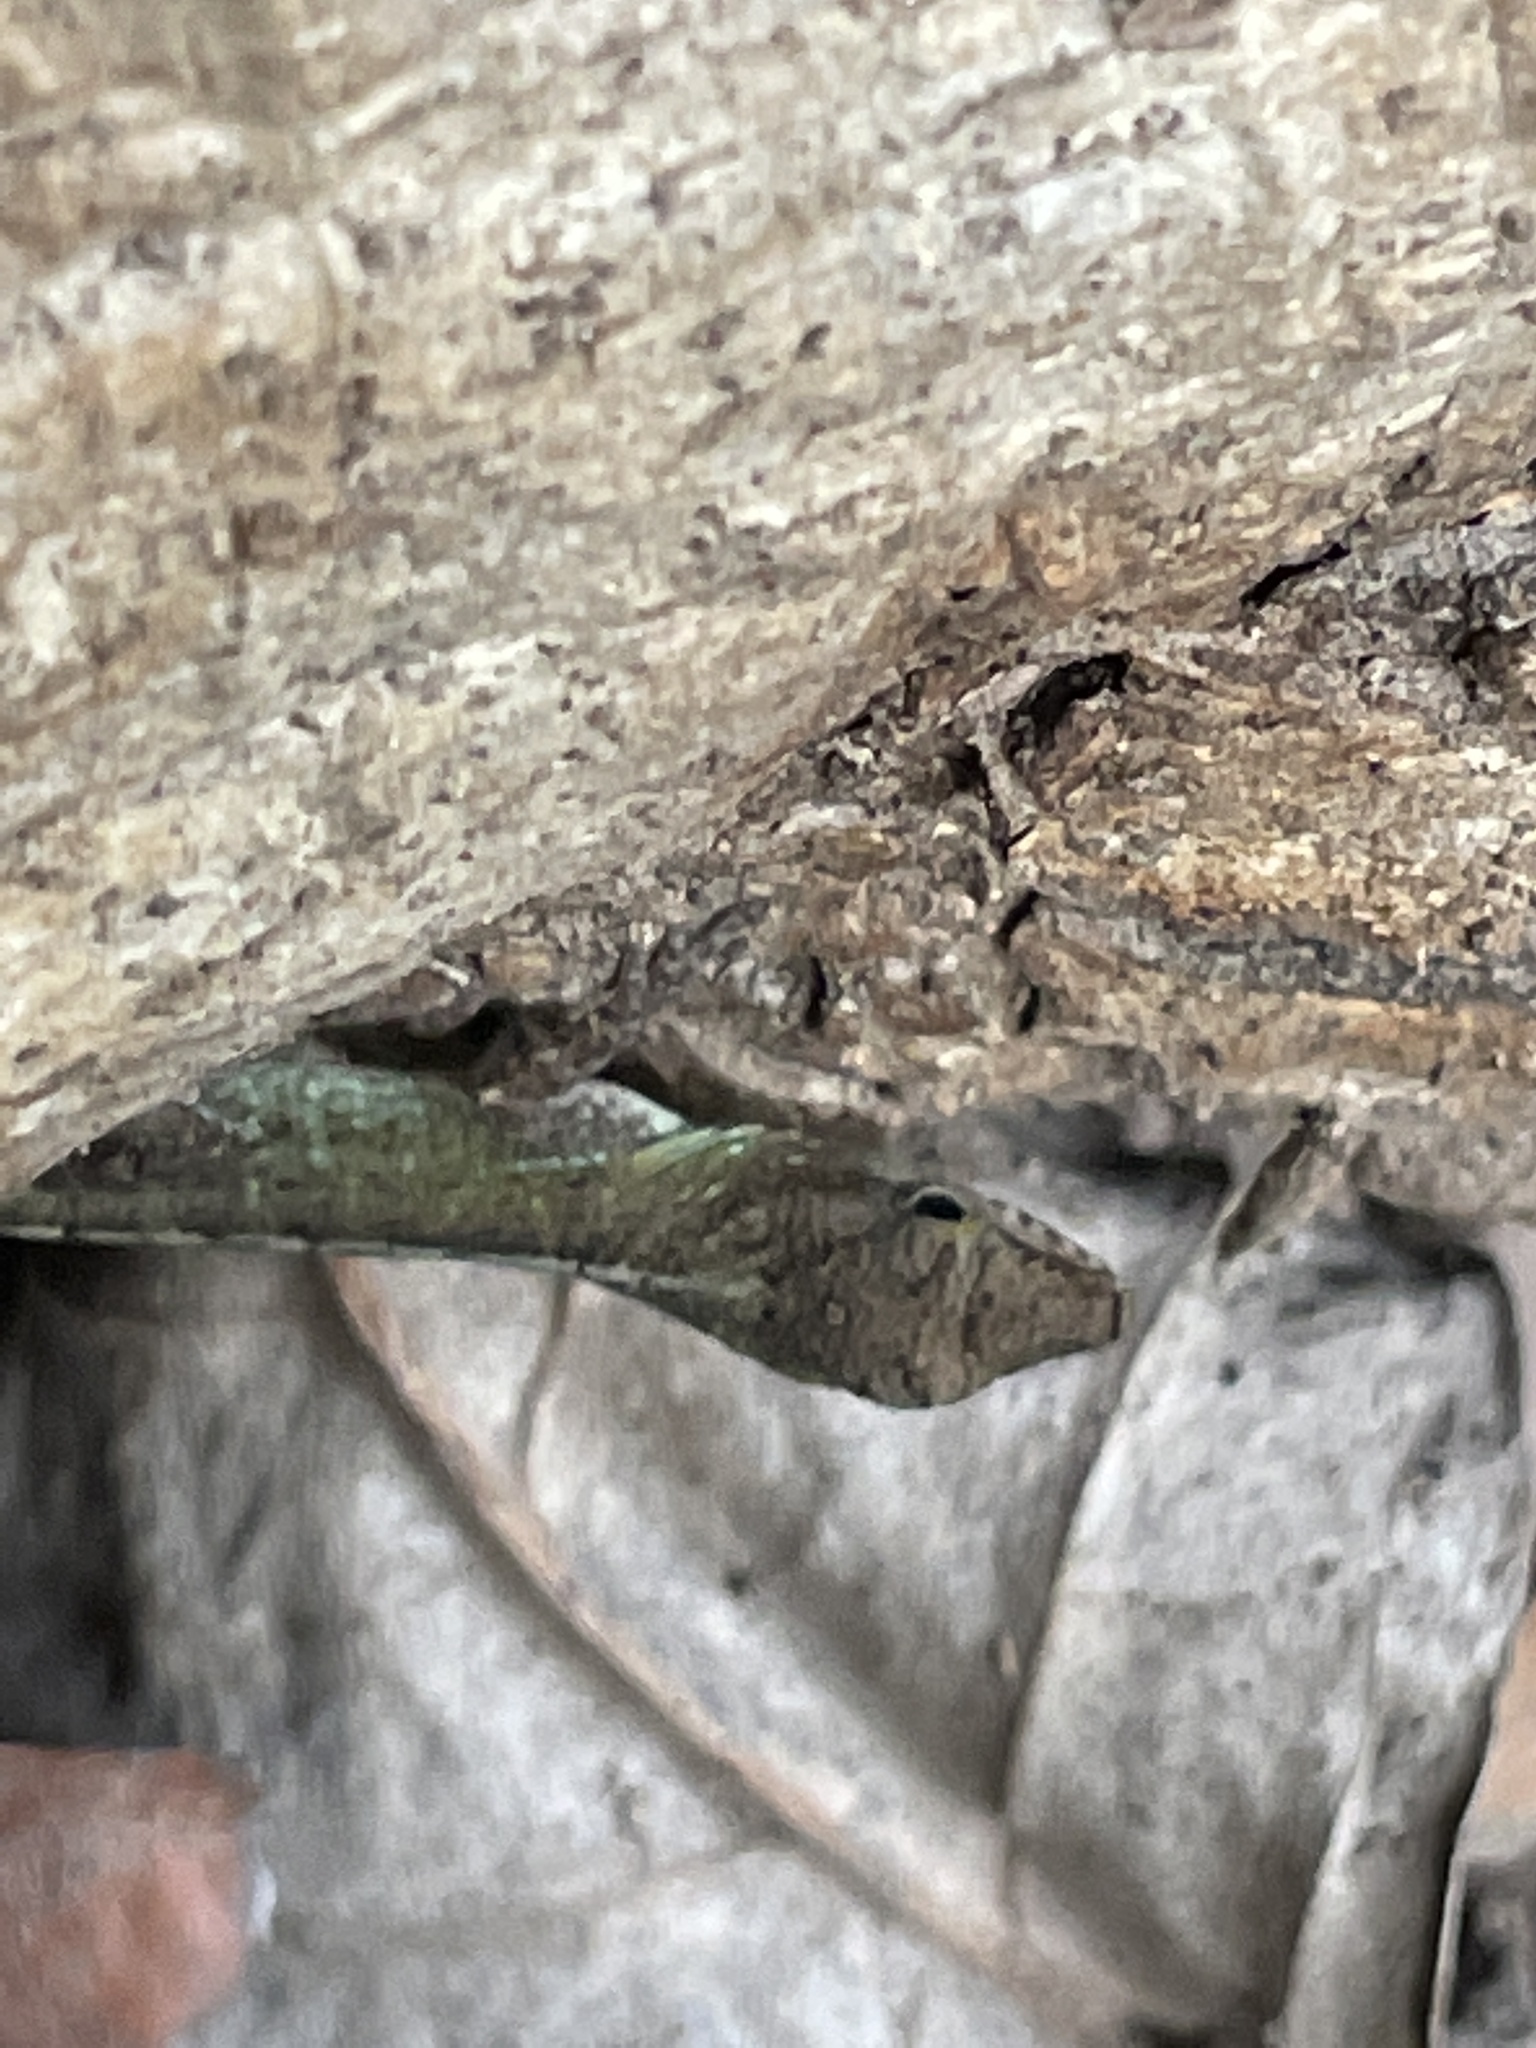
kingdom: Animalia
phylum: Chordata
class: Squamata
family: Dactyloidae
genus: Anolis
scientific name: Anolis lividus
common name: Montserrat anole
